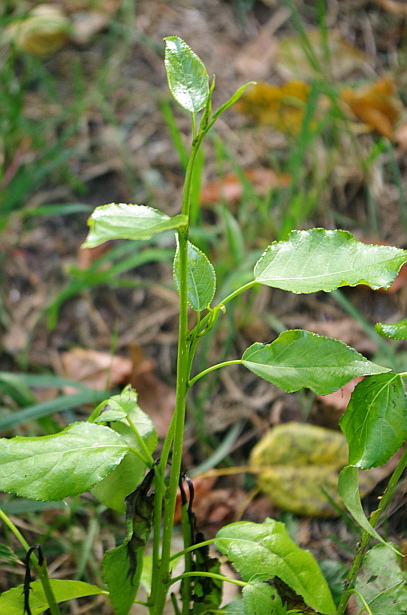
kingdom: Plantae
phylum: Tracheophyta
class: Magnoliopsida
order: Malpighiales
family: Salicaceae
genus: Populus
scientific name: Populus
